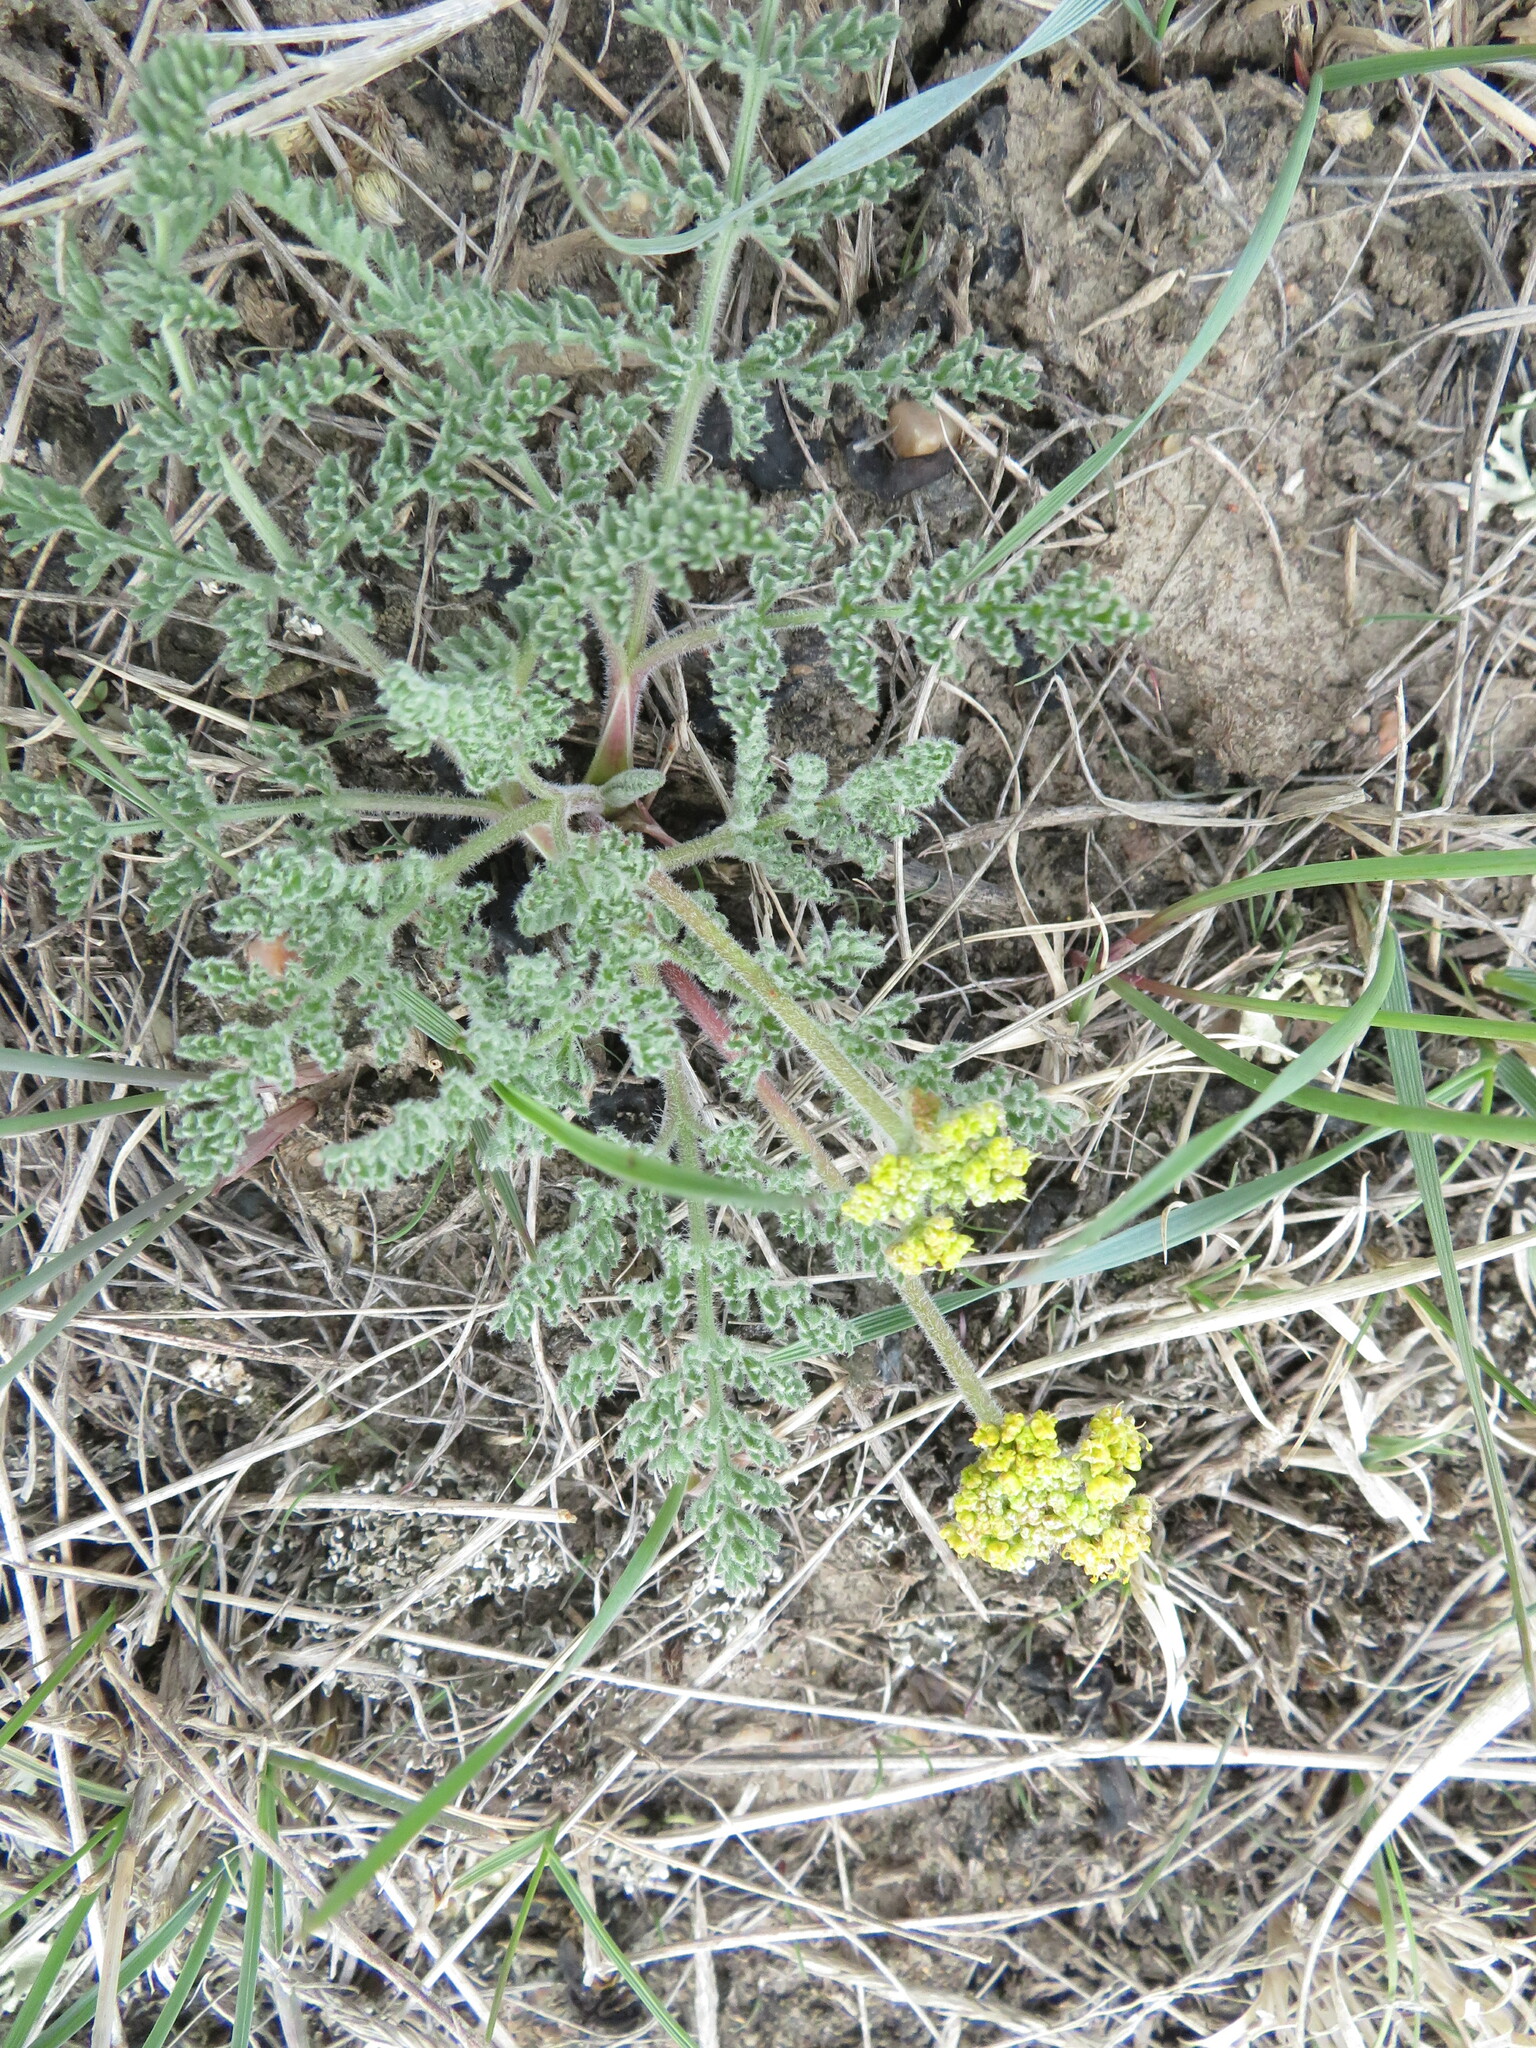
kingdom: Plantae
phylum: Tracheophyta
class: Magnoliopsida
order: Apiales
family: Apiaceae
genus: Lomatium
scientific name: Lomatium foeniculaceum
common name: Desert-parsley
